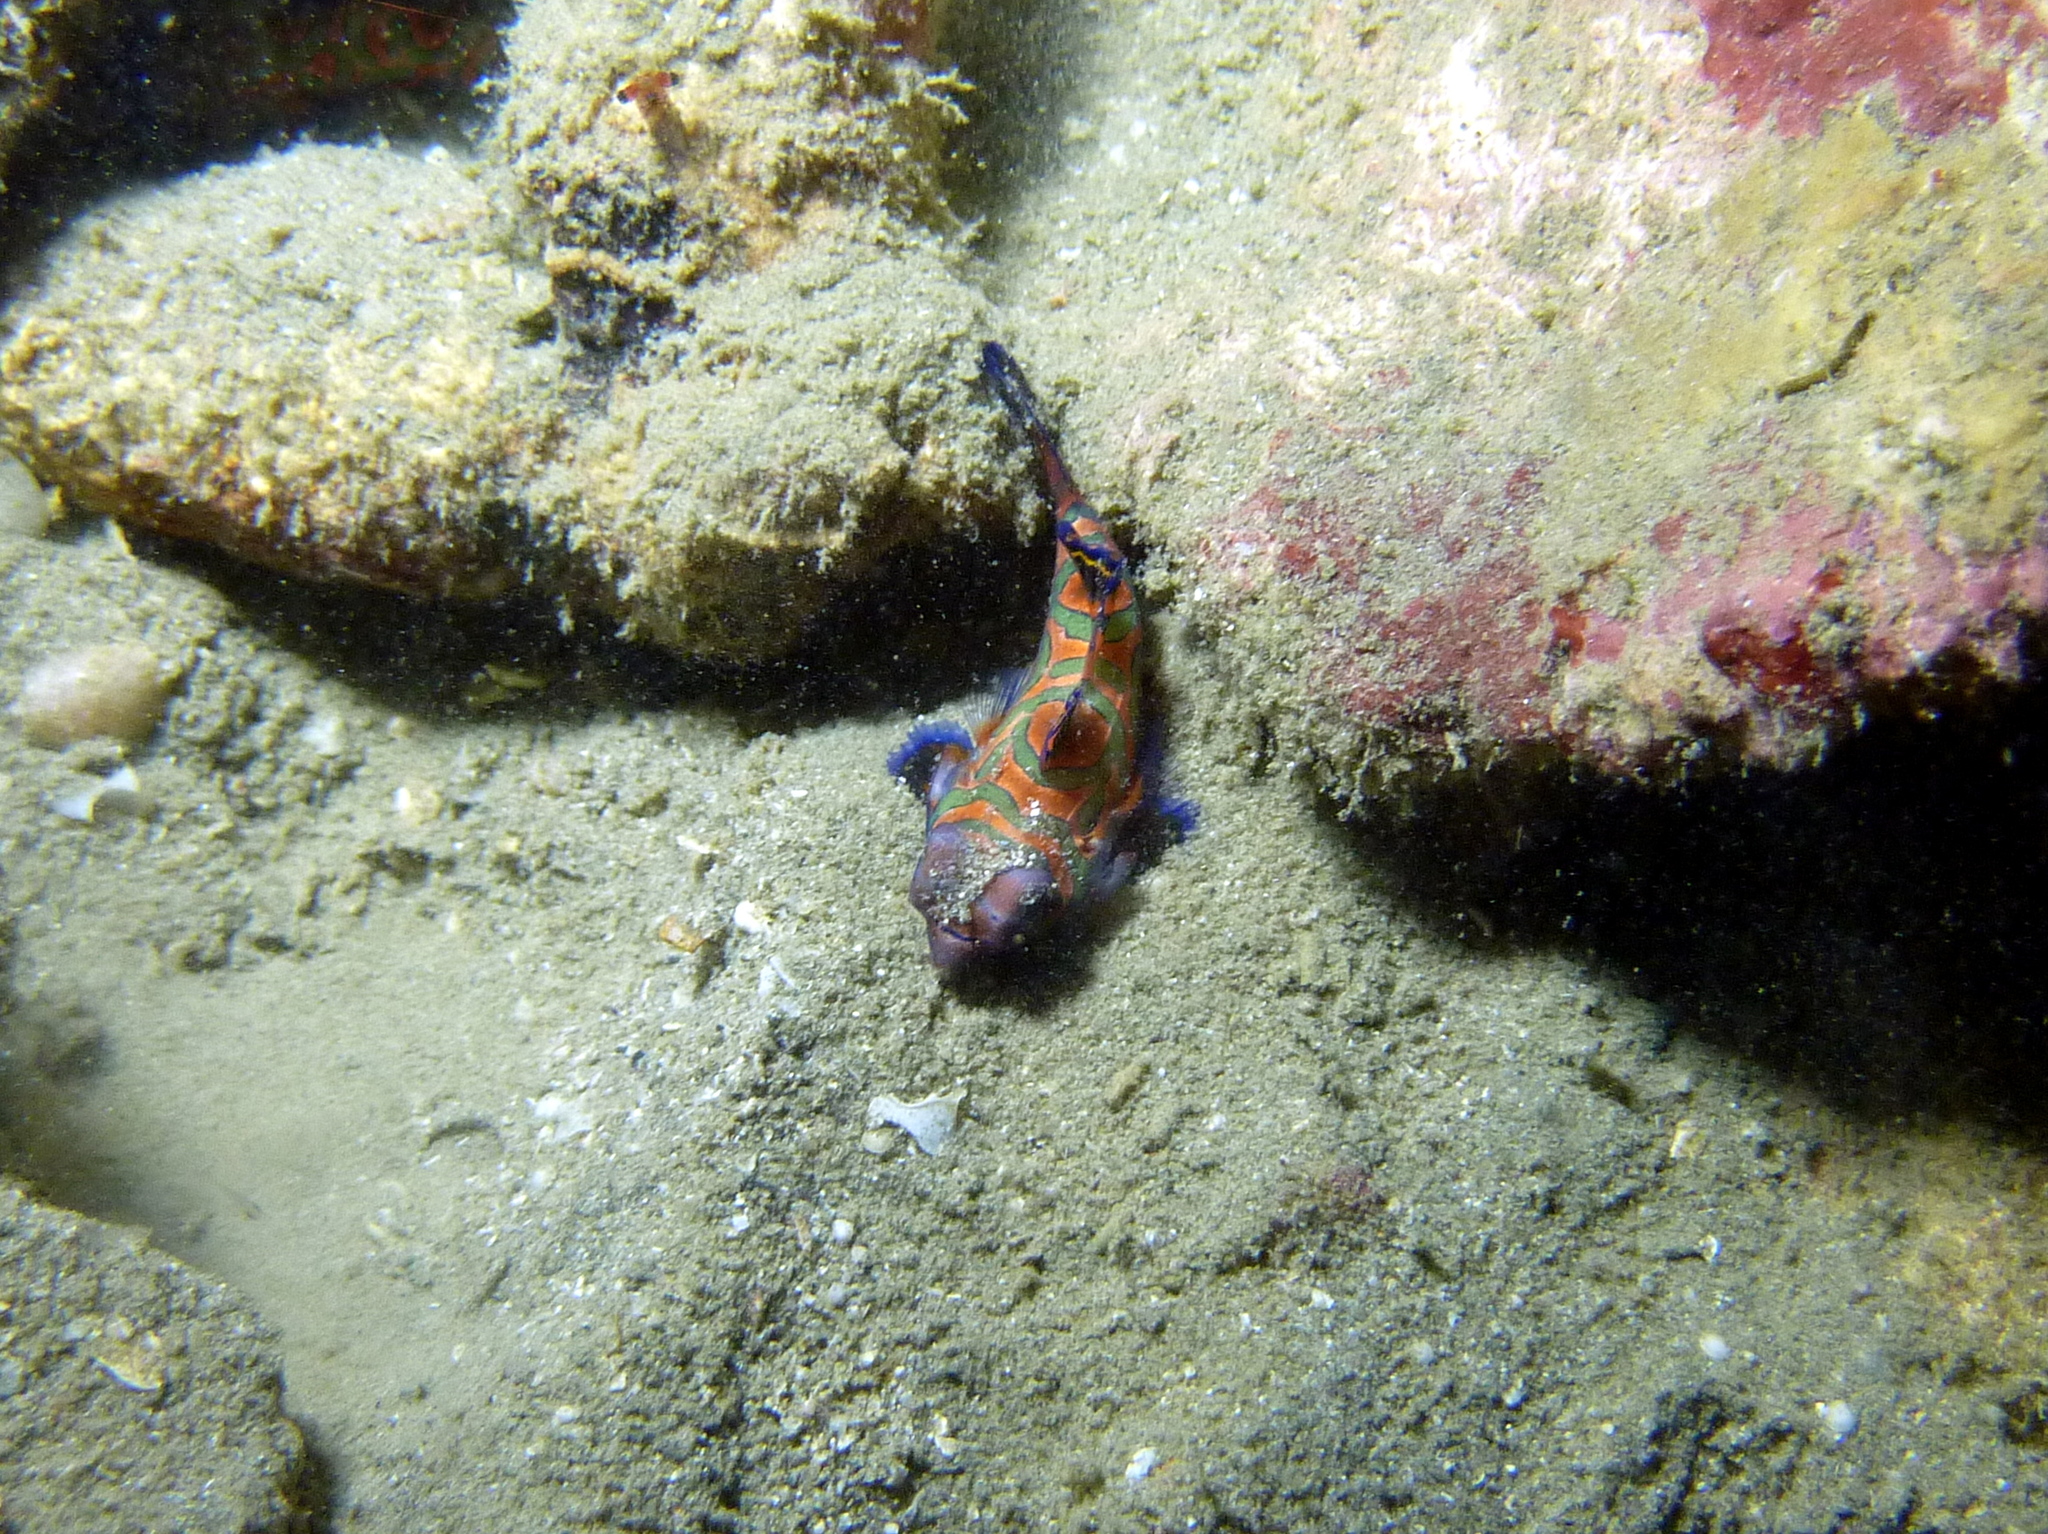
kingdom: Animalia
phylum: Chordata
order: Perciformes
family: Callionymidae
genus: Synchiropus
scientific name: Synchiropus splendidus
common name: Mandarinfish
